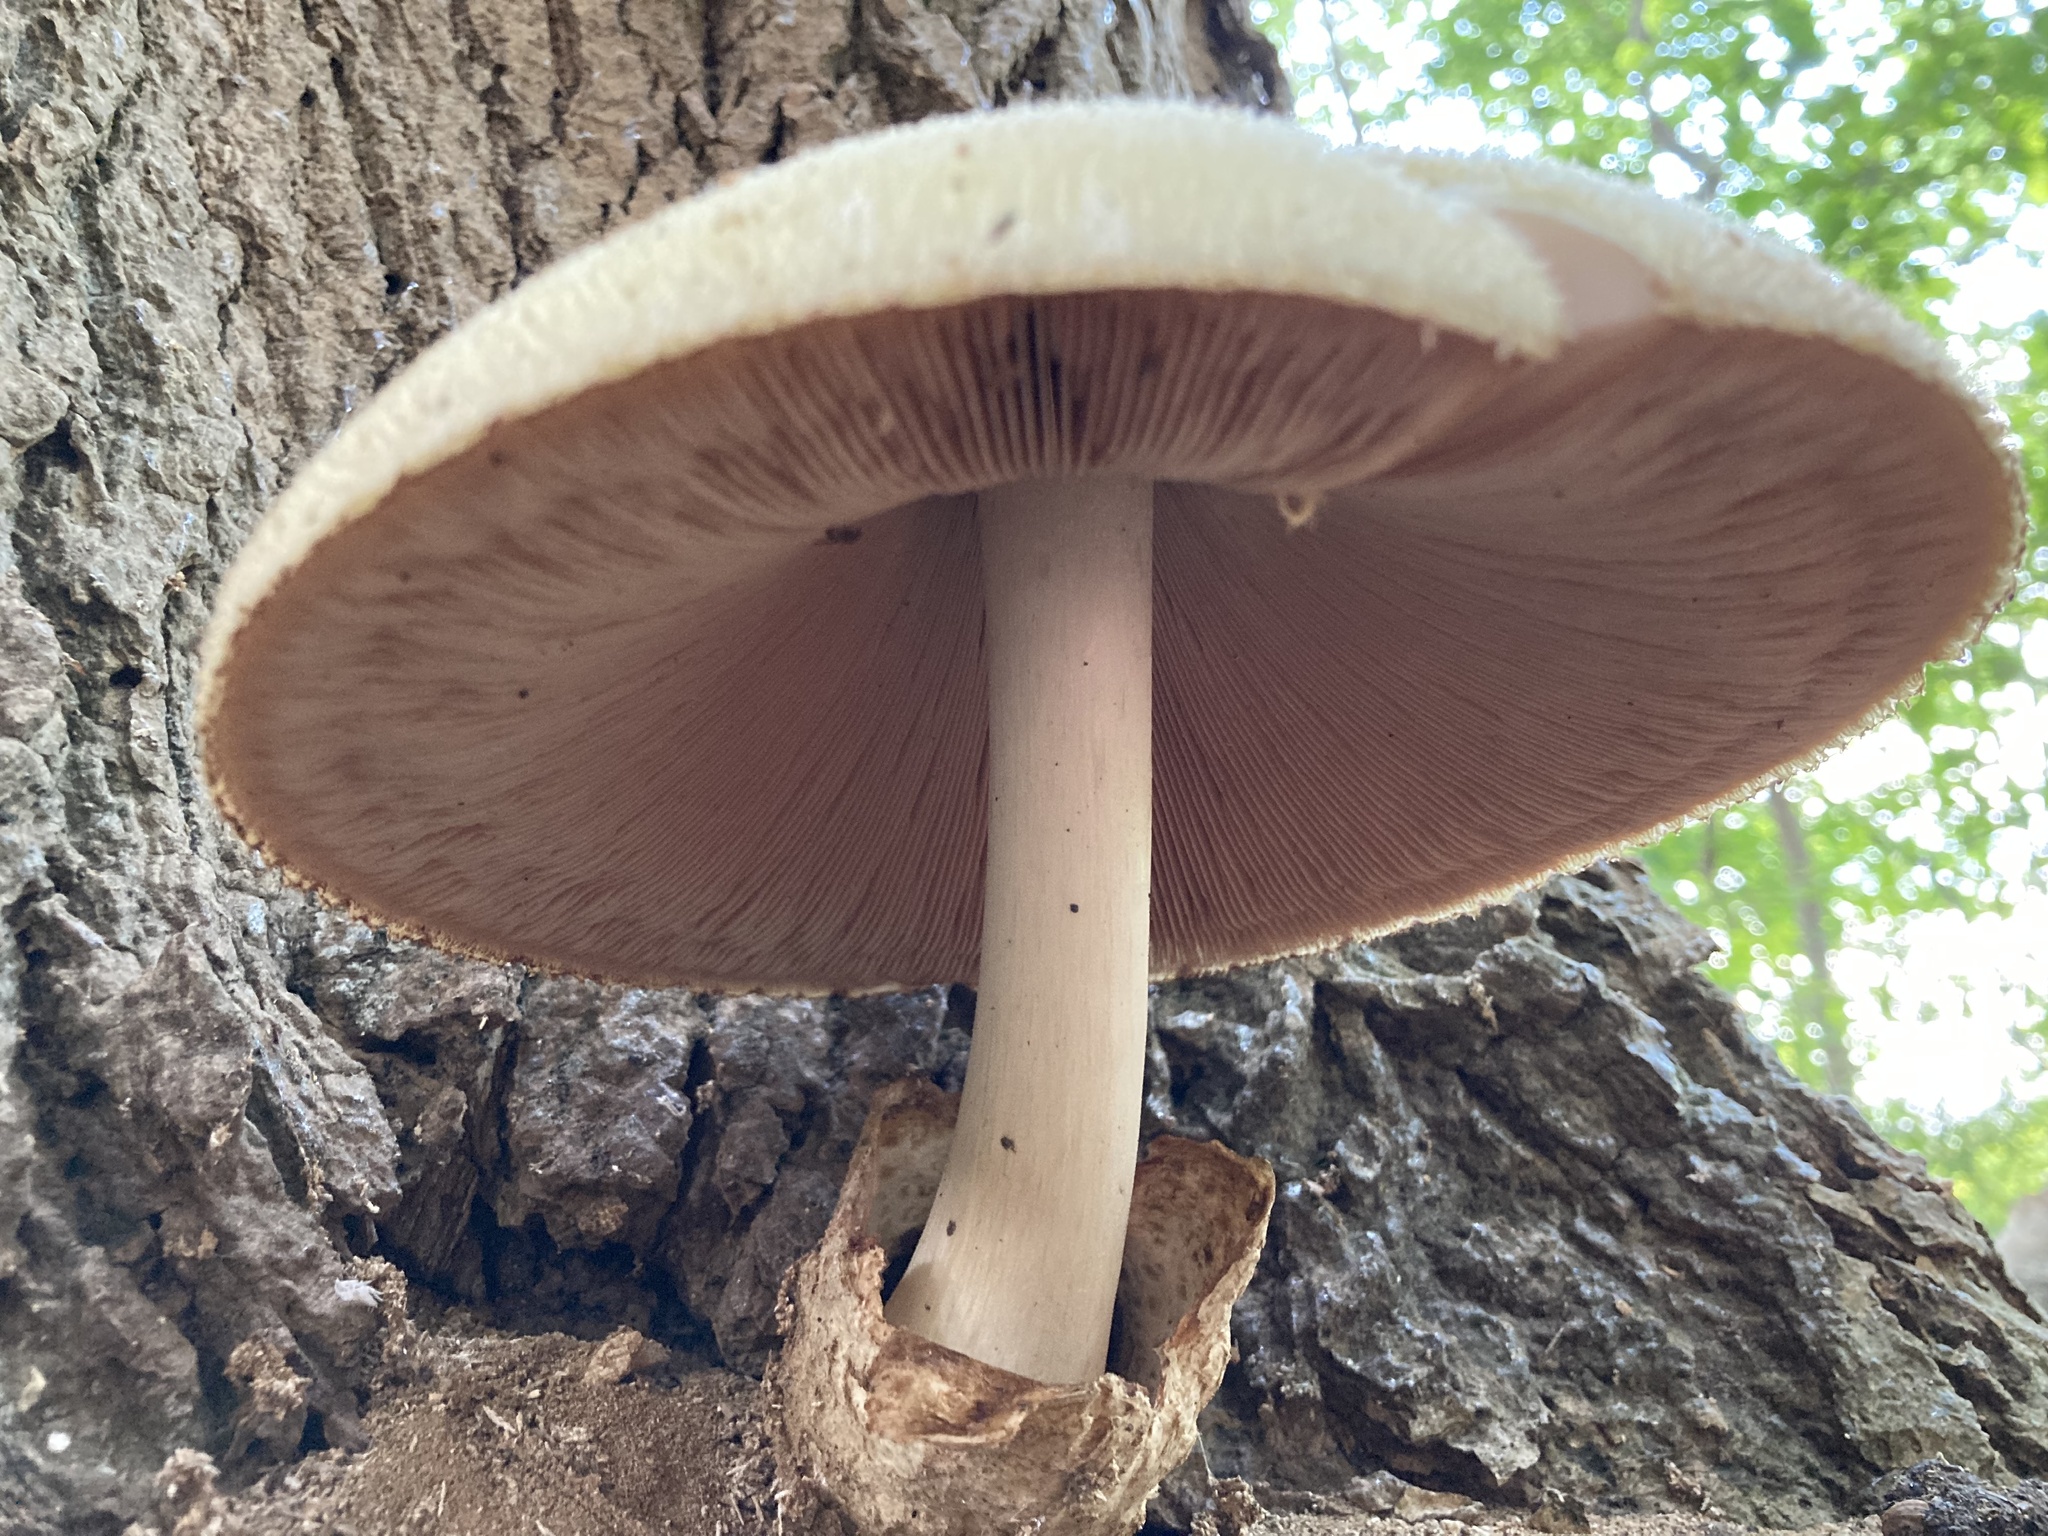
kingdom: Fungi
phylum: Basidiomycota
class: Agaricomycetes
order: Agaricales
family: Pluteaceae
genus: Volvariella
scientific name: Volvariella bombycina
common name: Silky rosegill
